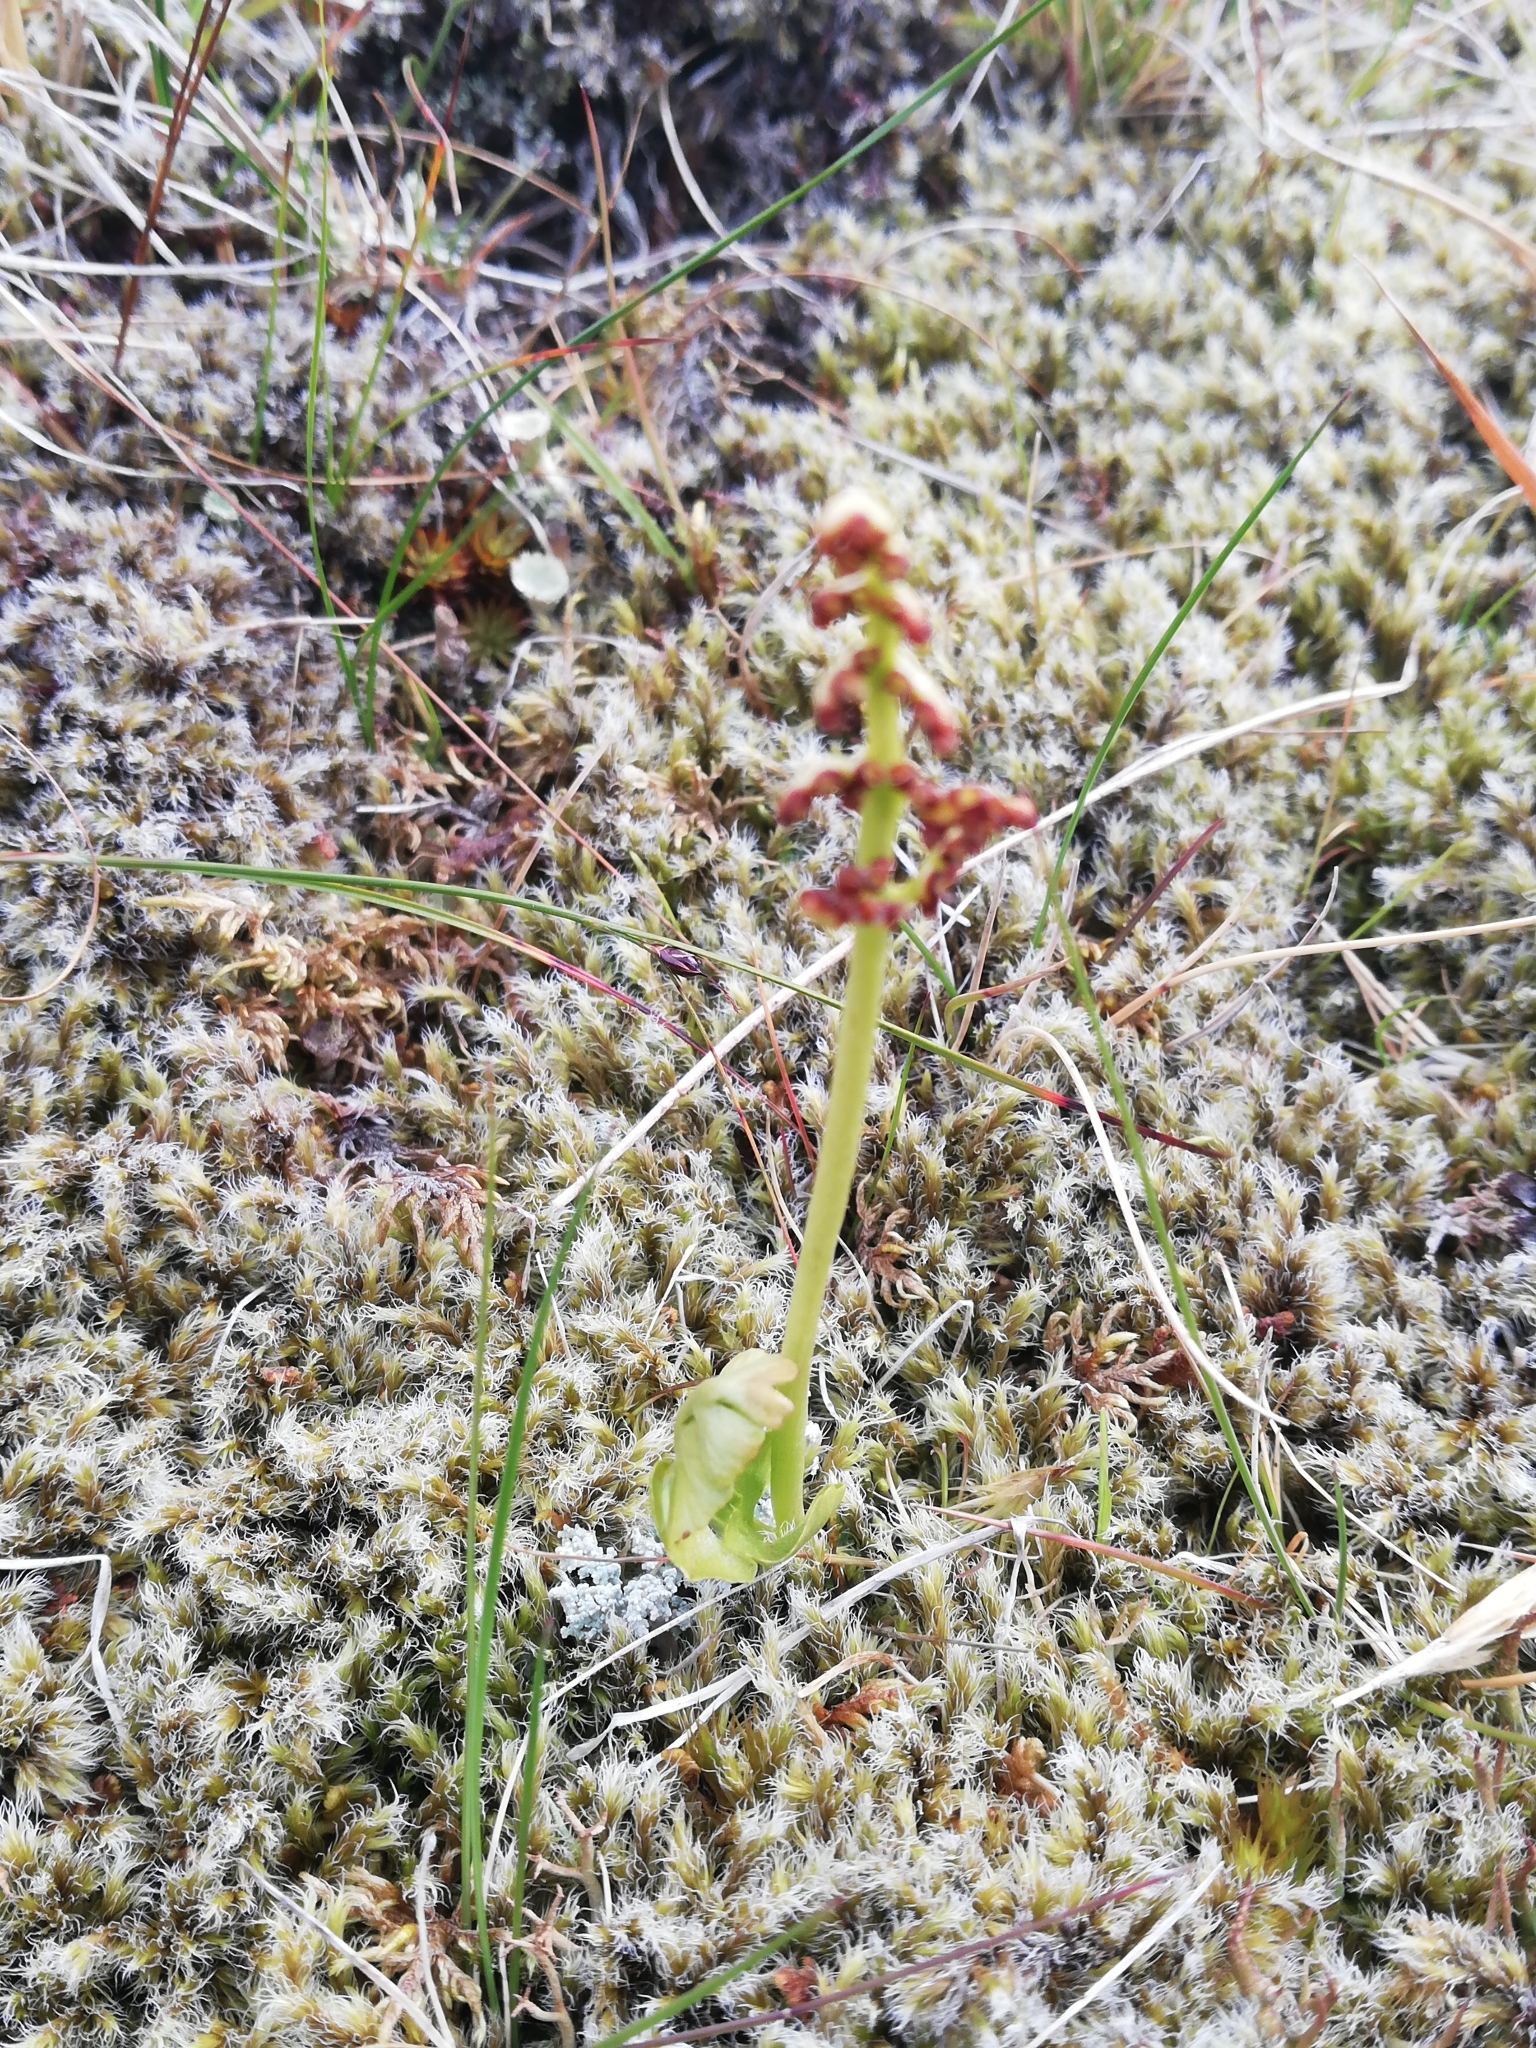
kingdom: Plantae
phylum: Tracheophyta
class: Polypodiopsida
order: Ophioglossales
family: Ophioglossaceae
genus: Botrychium
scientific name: Botrychium lunaria
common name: Moonwort
